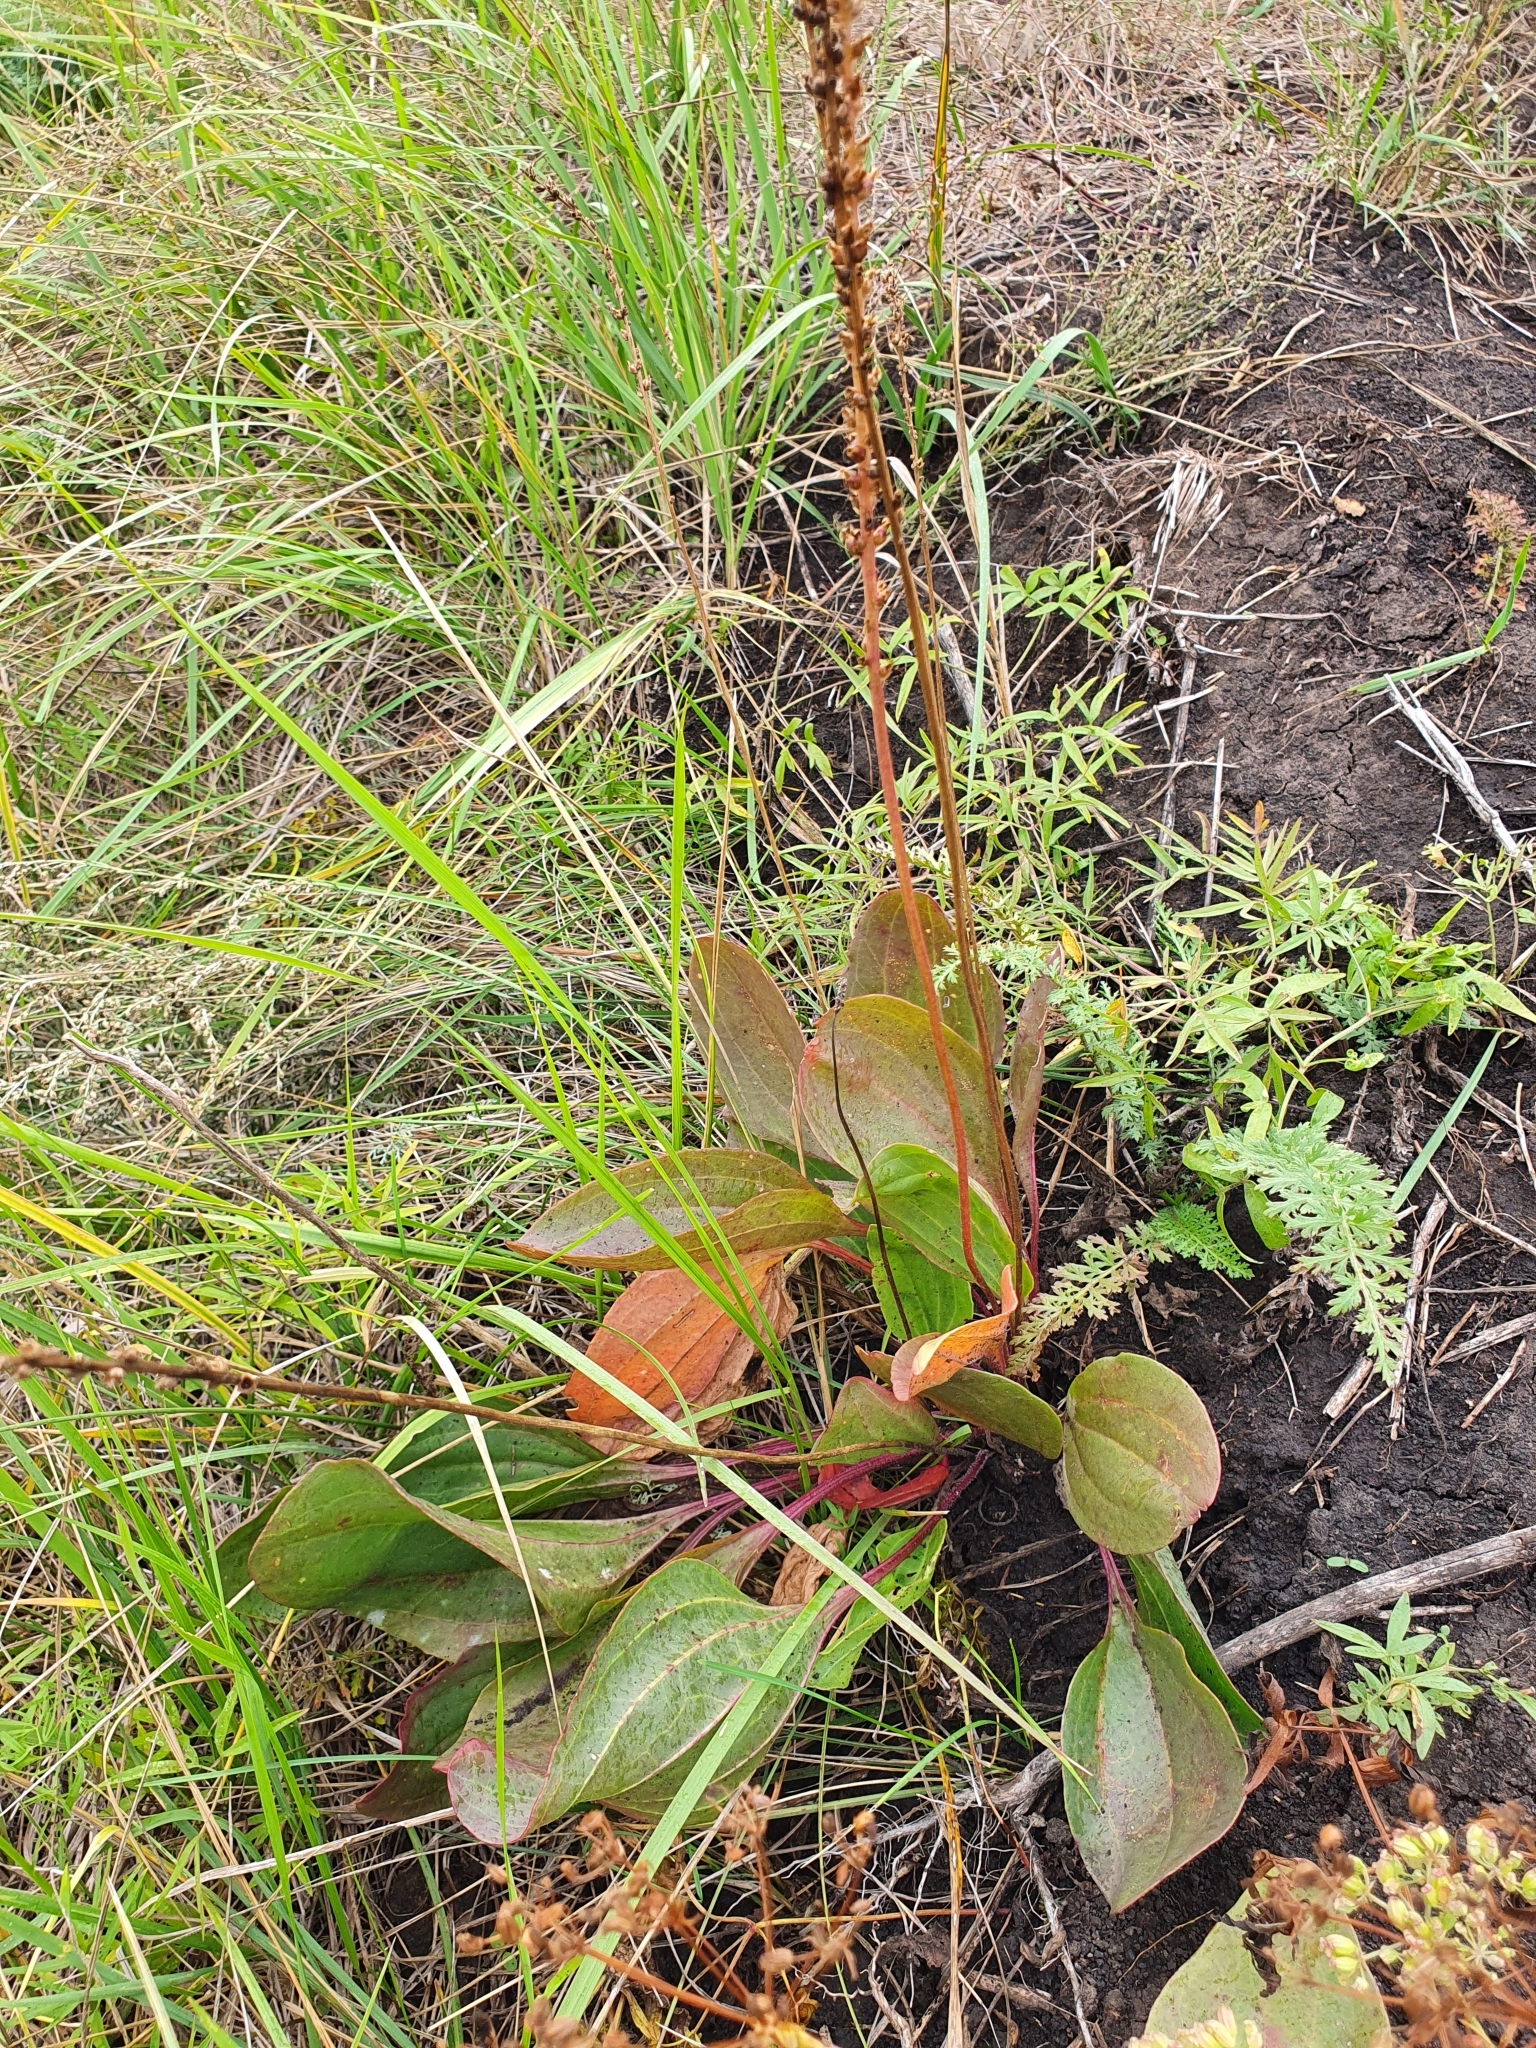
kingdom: Plantae
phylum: Tracheophyta
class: Magnoliopsida
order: Lamiales
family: Plantaginaceae
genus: Plantago
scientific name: Plantago cornuti
